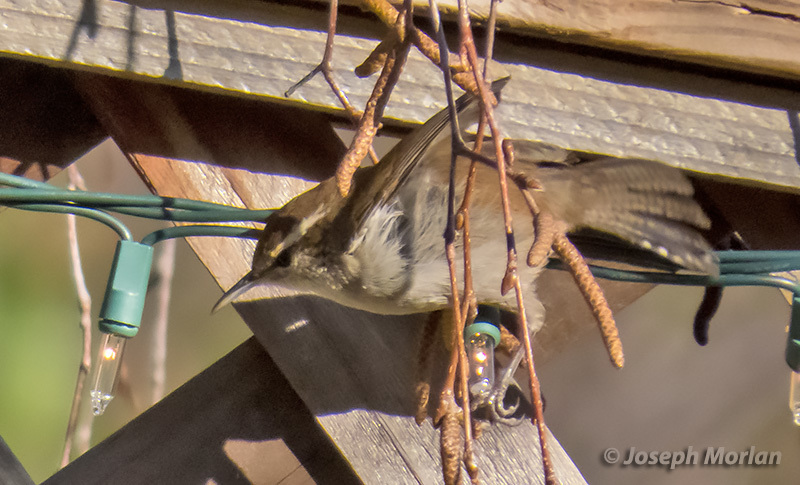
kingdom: Animalia
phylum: Chordata
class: Aves
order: Passeriformes
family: Troglodytidae
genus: Thryomanes
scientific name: Thryomanes bewickii
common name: Bewick's wren
